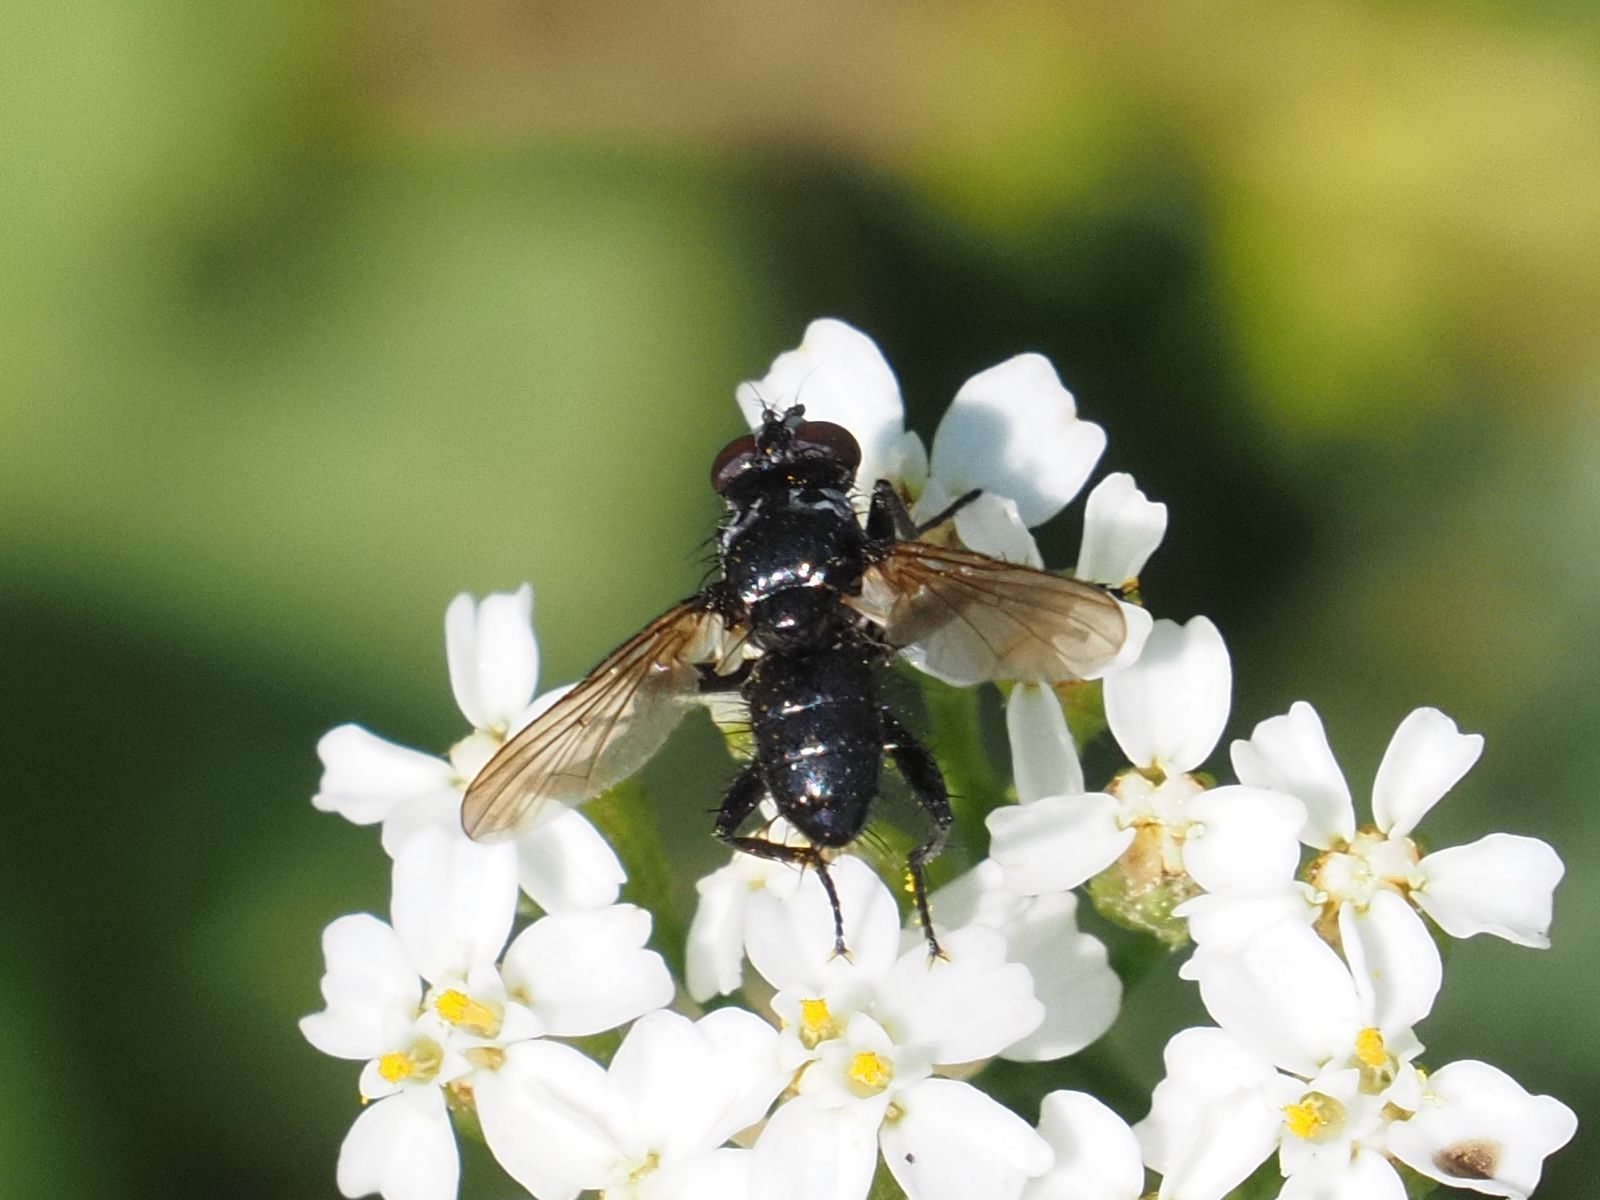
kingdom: Animalia
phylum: Arthropoda
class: Insecta
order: Diptera
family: Tachinidae
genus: Phania
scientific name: Phania funesta
